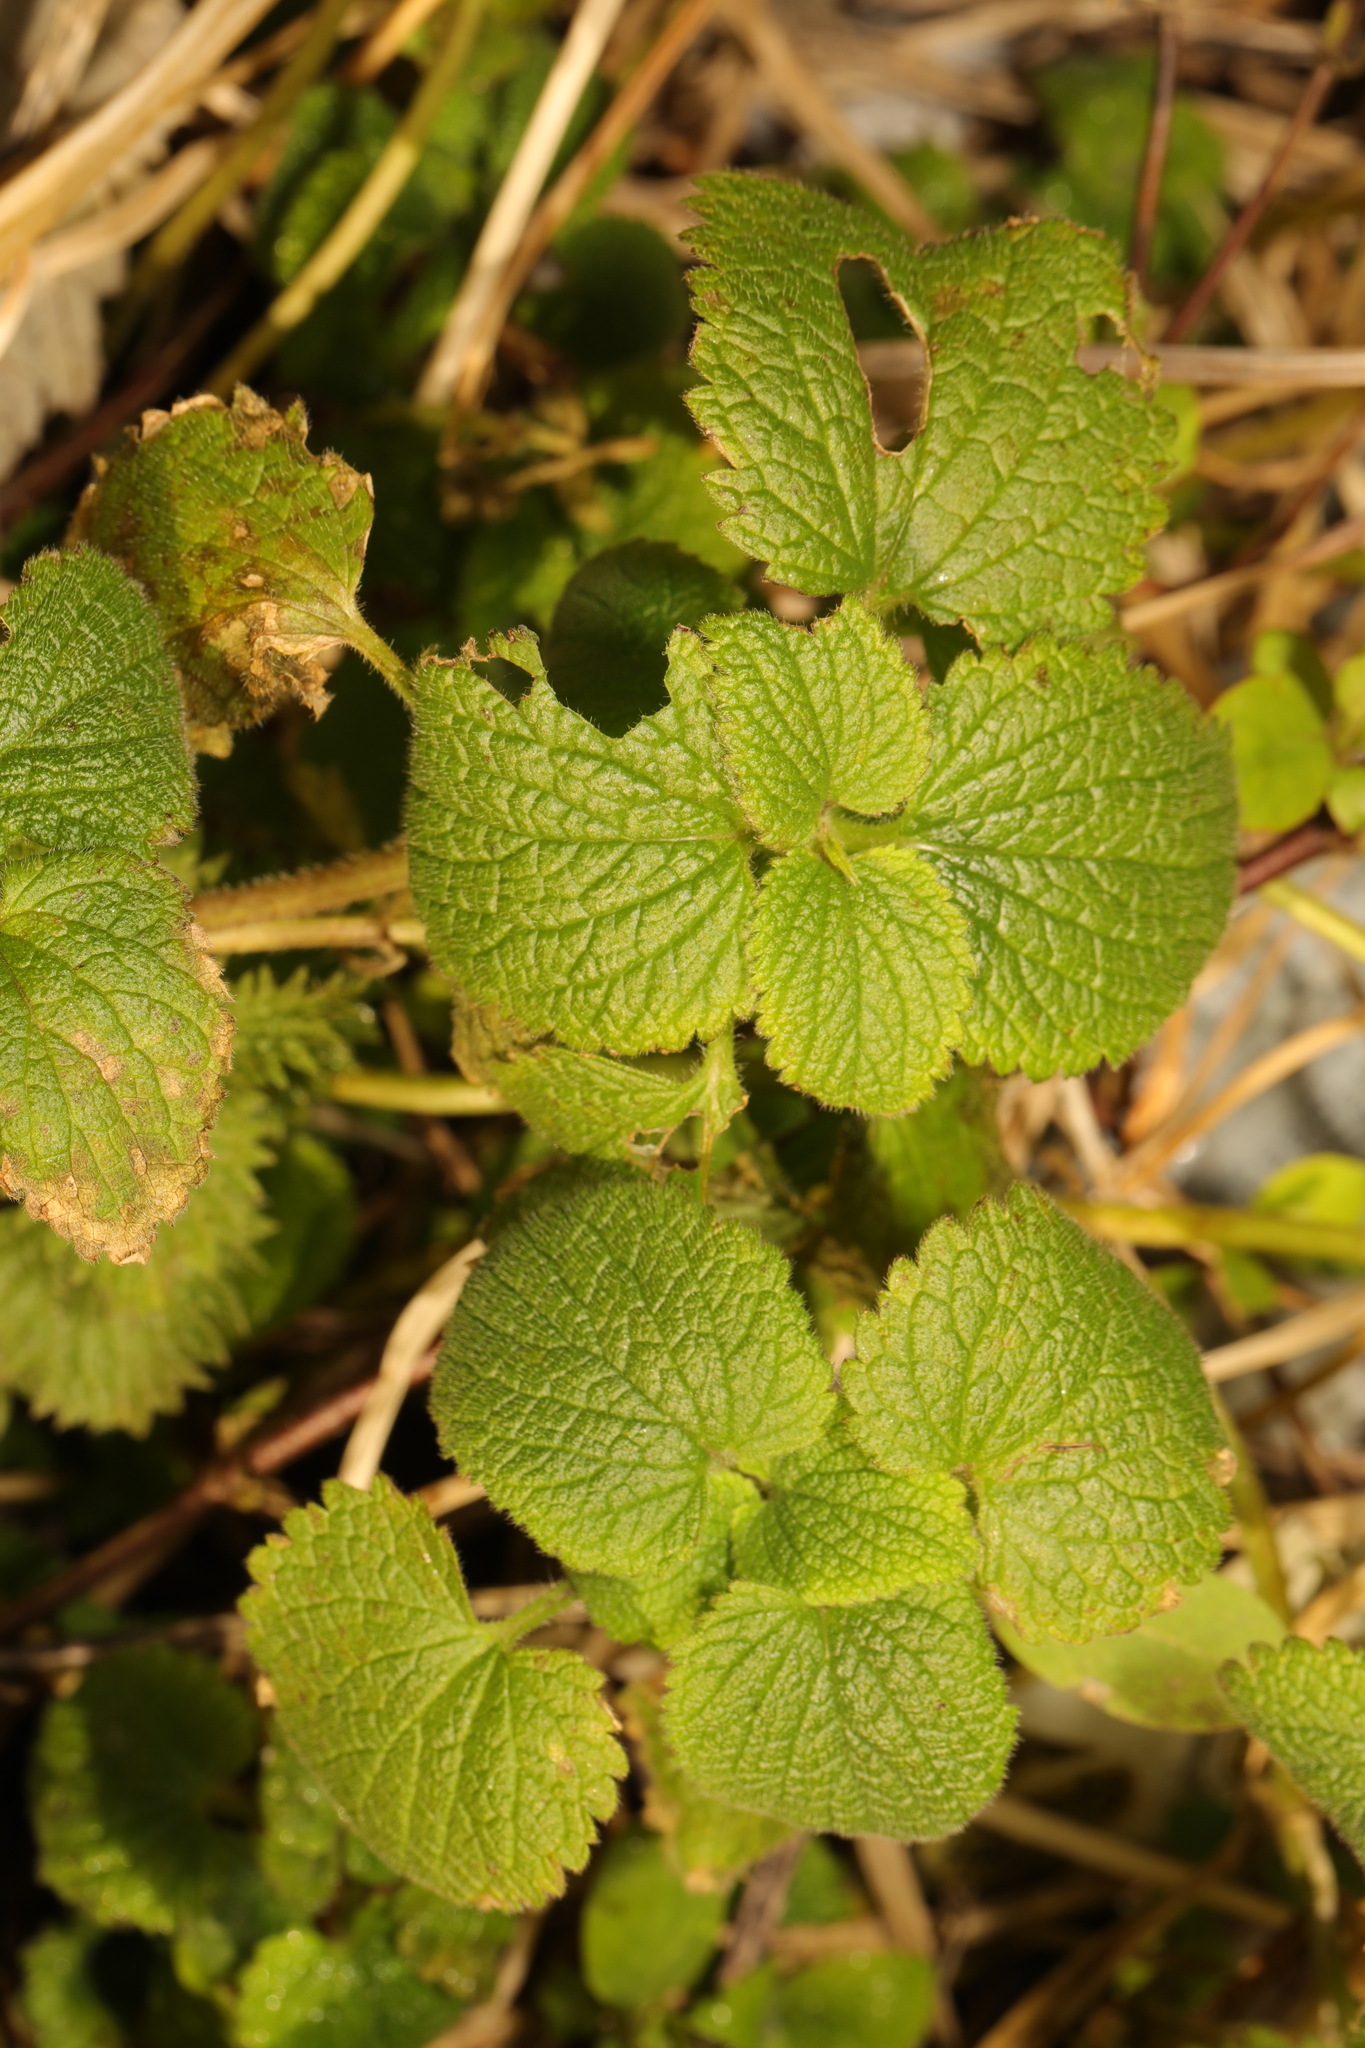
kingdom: Plantae
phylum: Tracheophyta
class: Magnoliopsida
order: Lamiales
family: Lamiaceae
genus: Lamium
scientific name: Lamium album
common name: White dead-nettle
